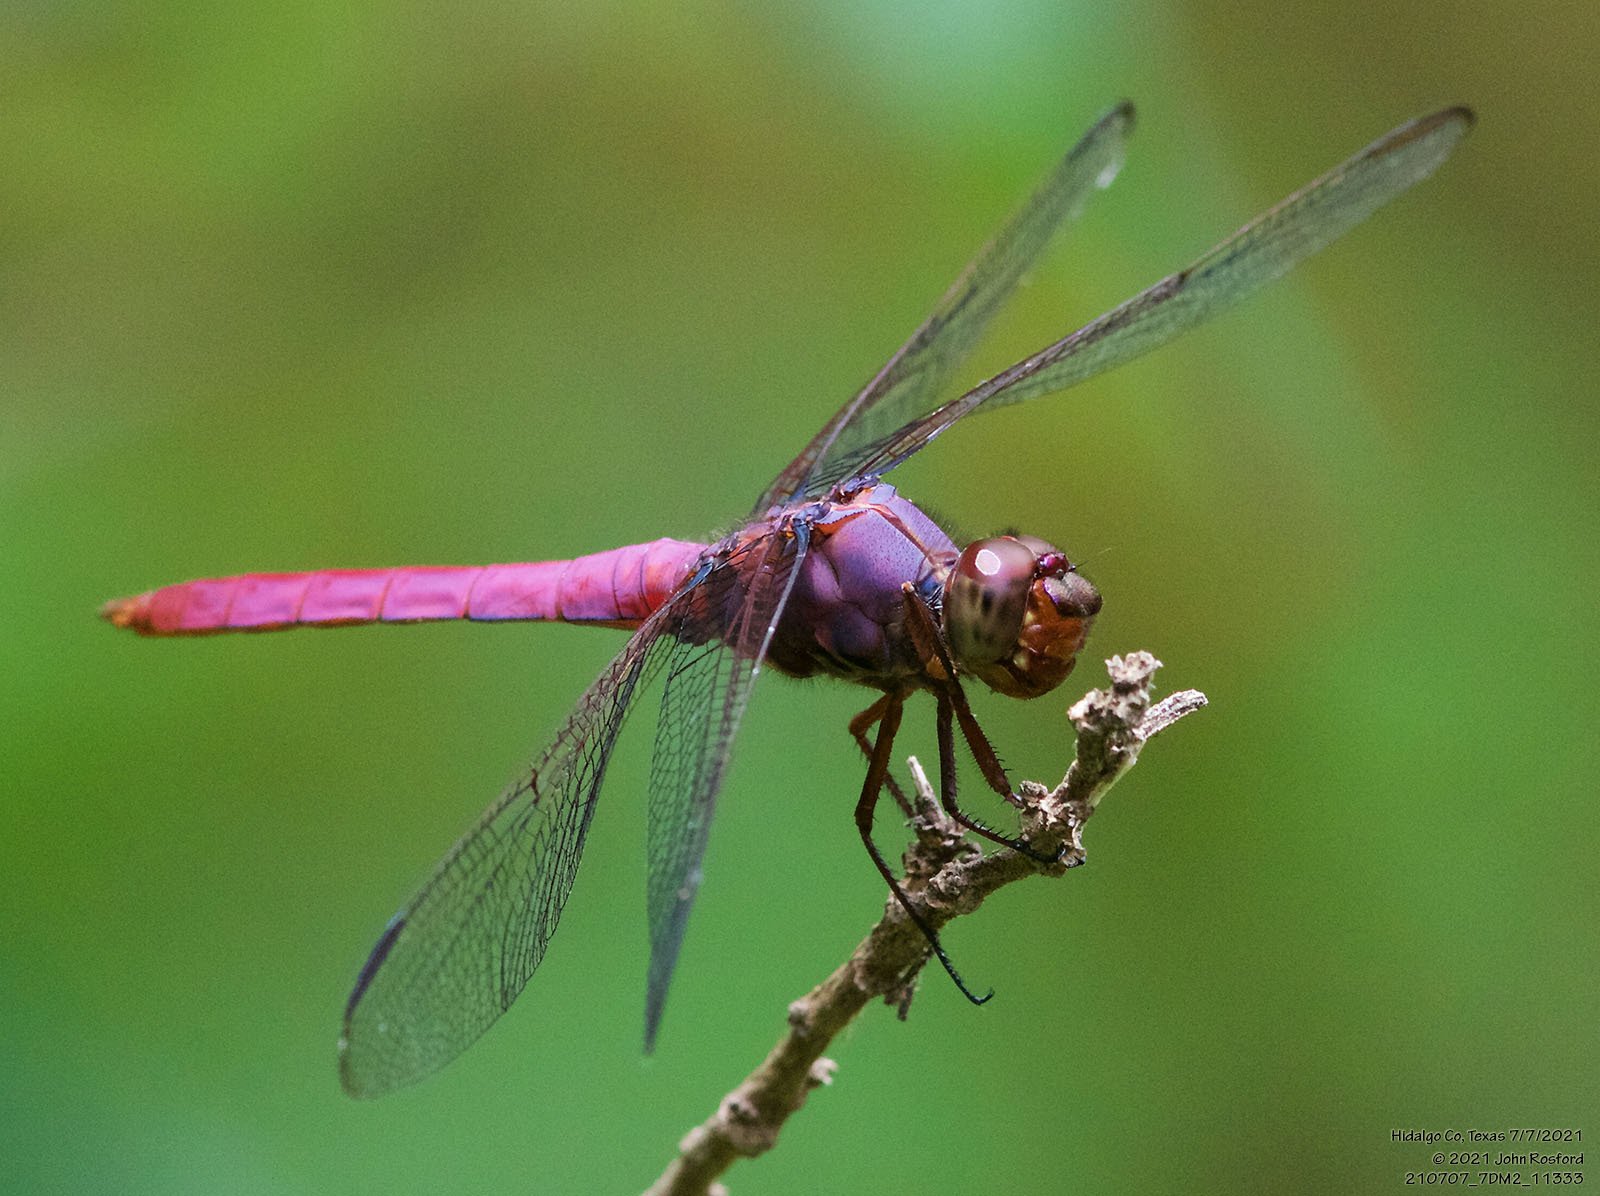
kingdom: Animalia
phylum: Arthropoda
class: Insecta
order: Odonata
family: Libellulidae
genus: Orthemis
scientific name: Orthemis ferruginea
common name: Roseate skimmer
